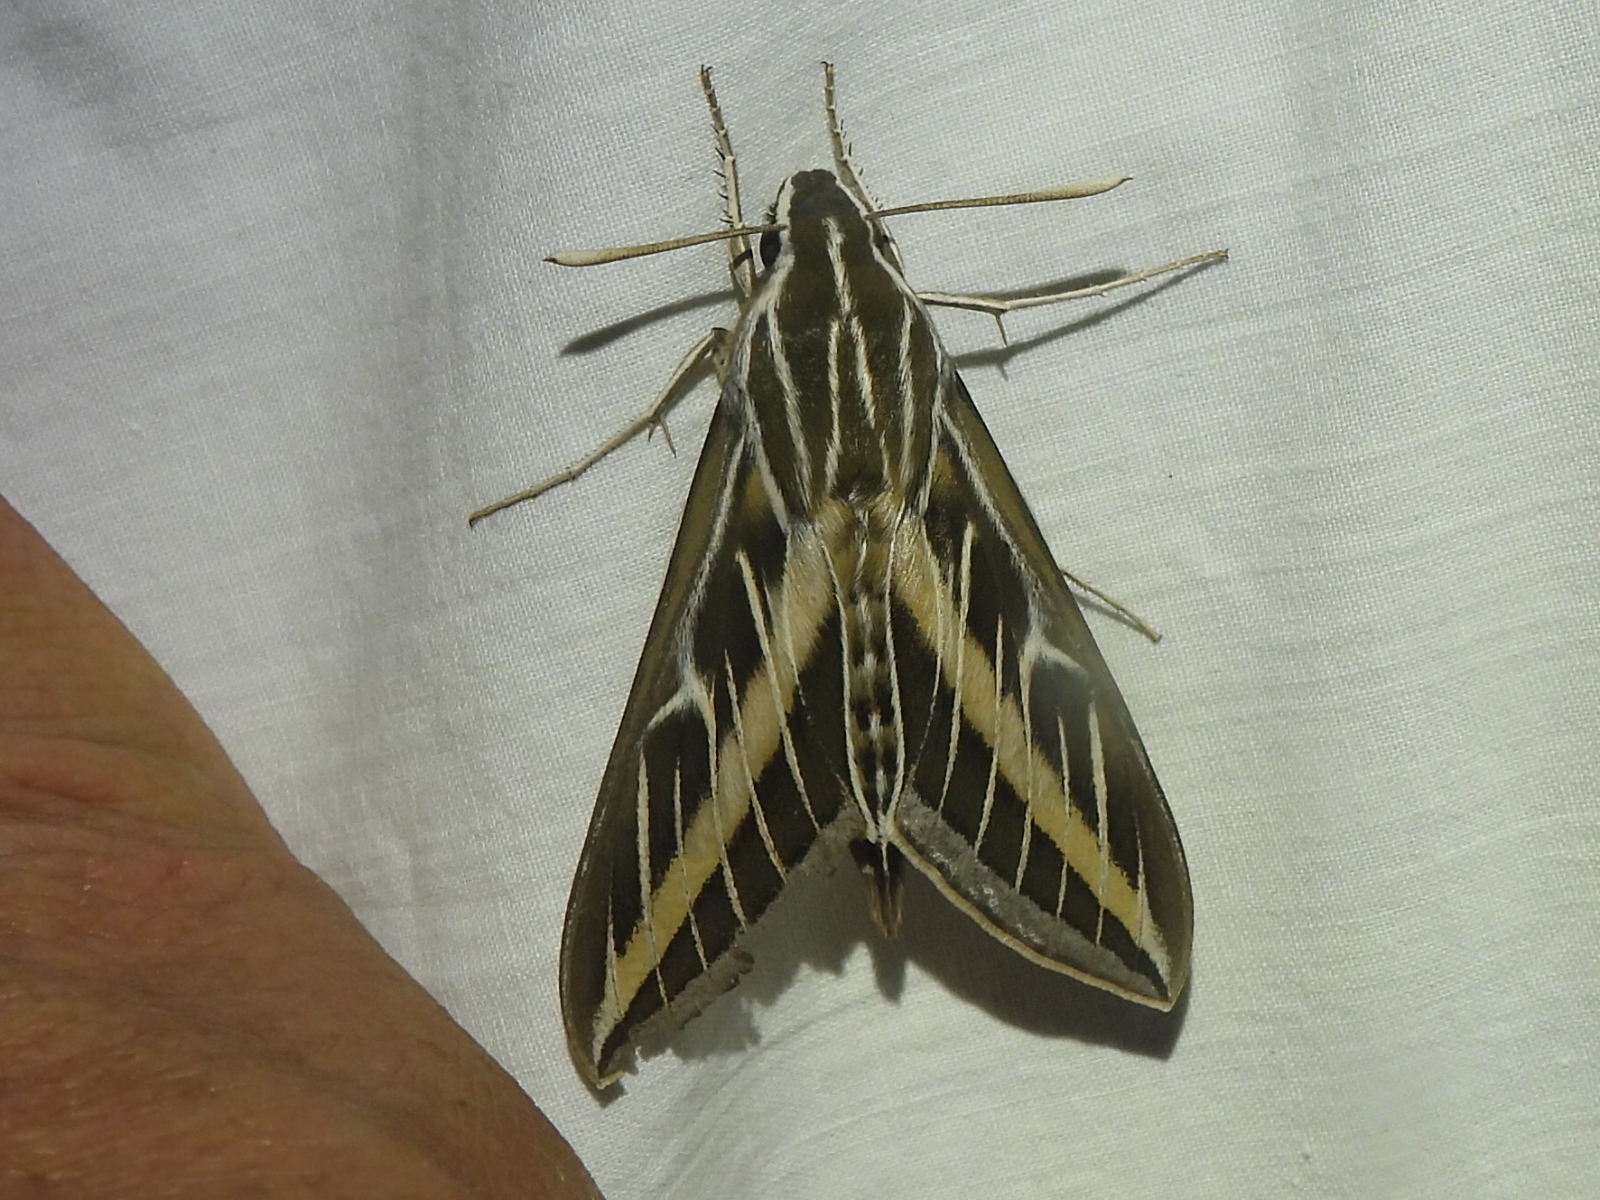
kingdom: Animalia
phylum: Arthropoda
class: Insecta
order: Lepidoptera
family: Sphingidae
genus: Hyles
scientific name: Hyles lineata
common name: White-lined sphinx
